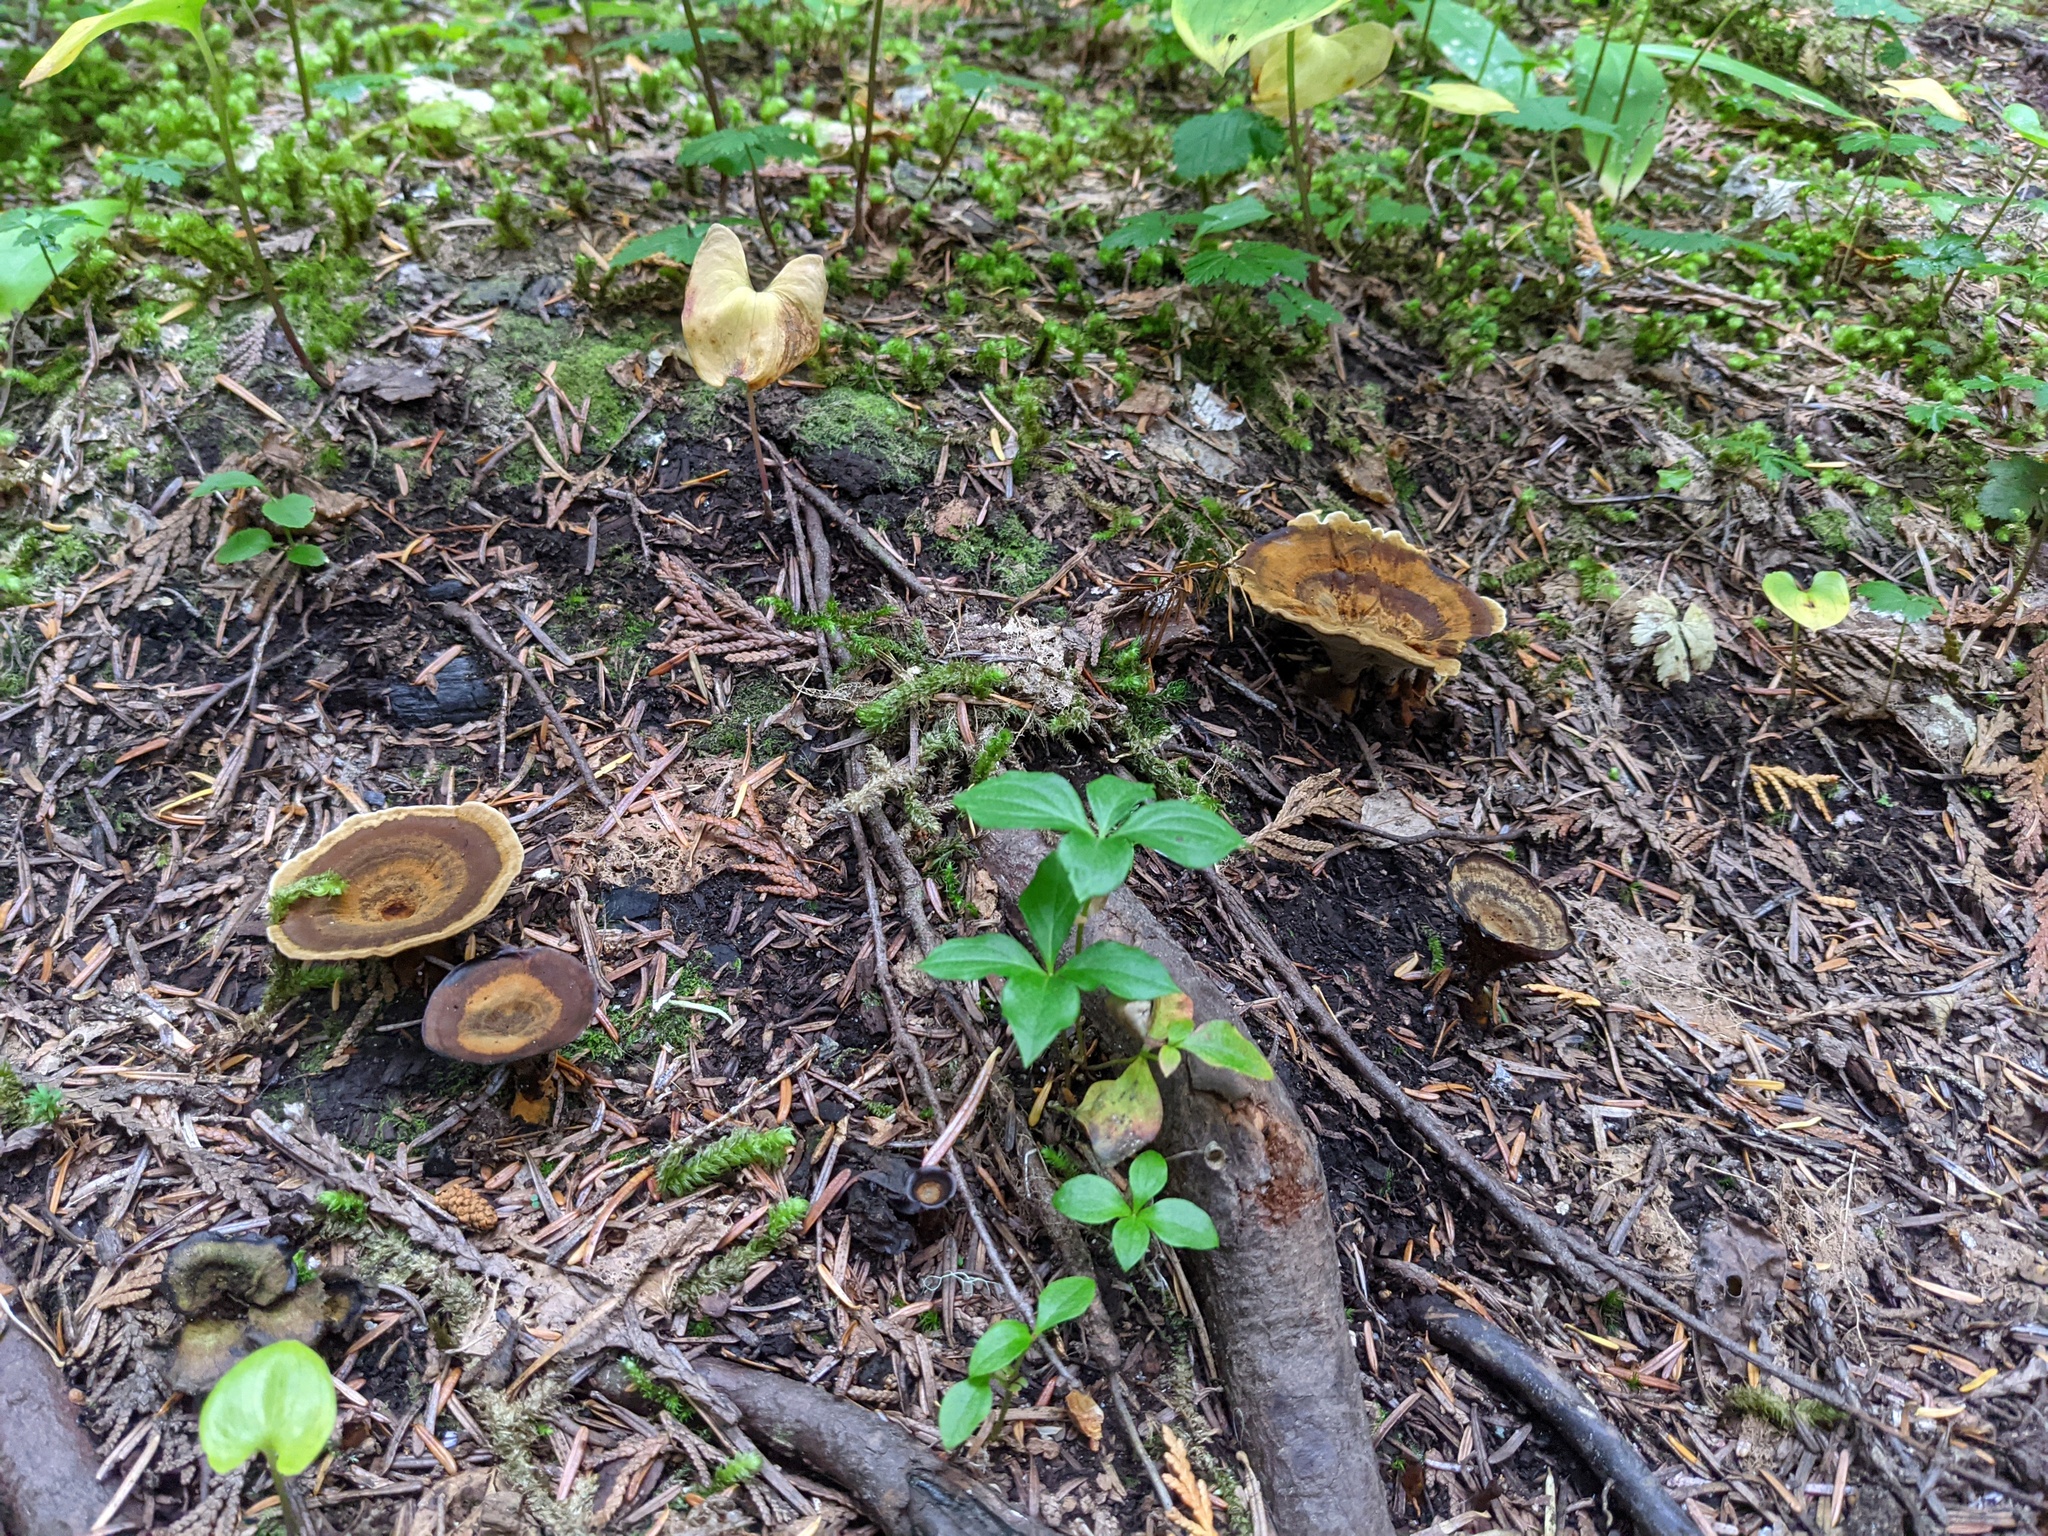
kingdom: Fungi
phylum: Basidiomycota
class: Agaricomycetes
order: Hymenochaetales
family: Hymenochaetaceae
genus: Coltricia
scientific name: Coltricia perennis
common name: Tiger's eye
